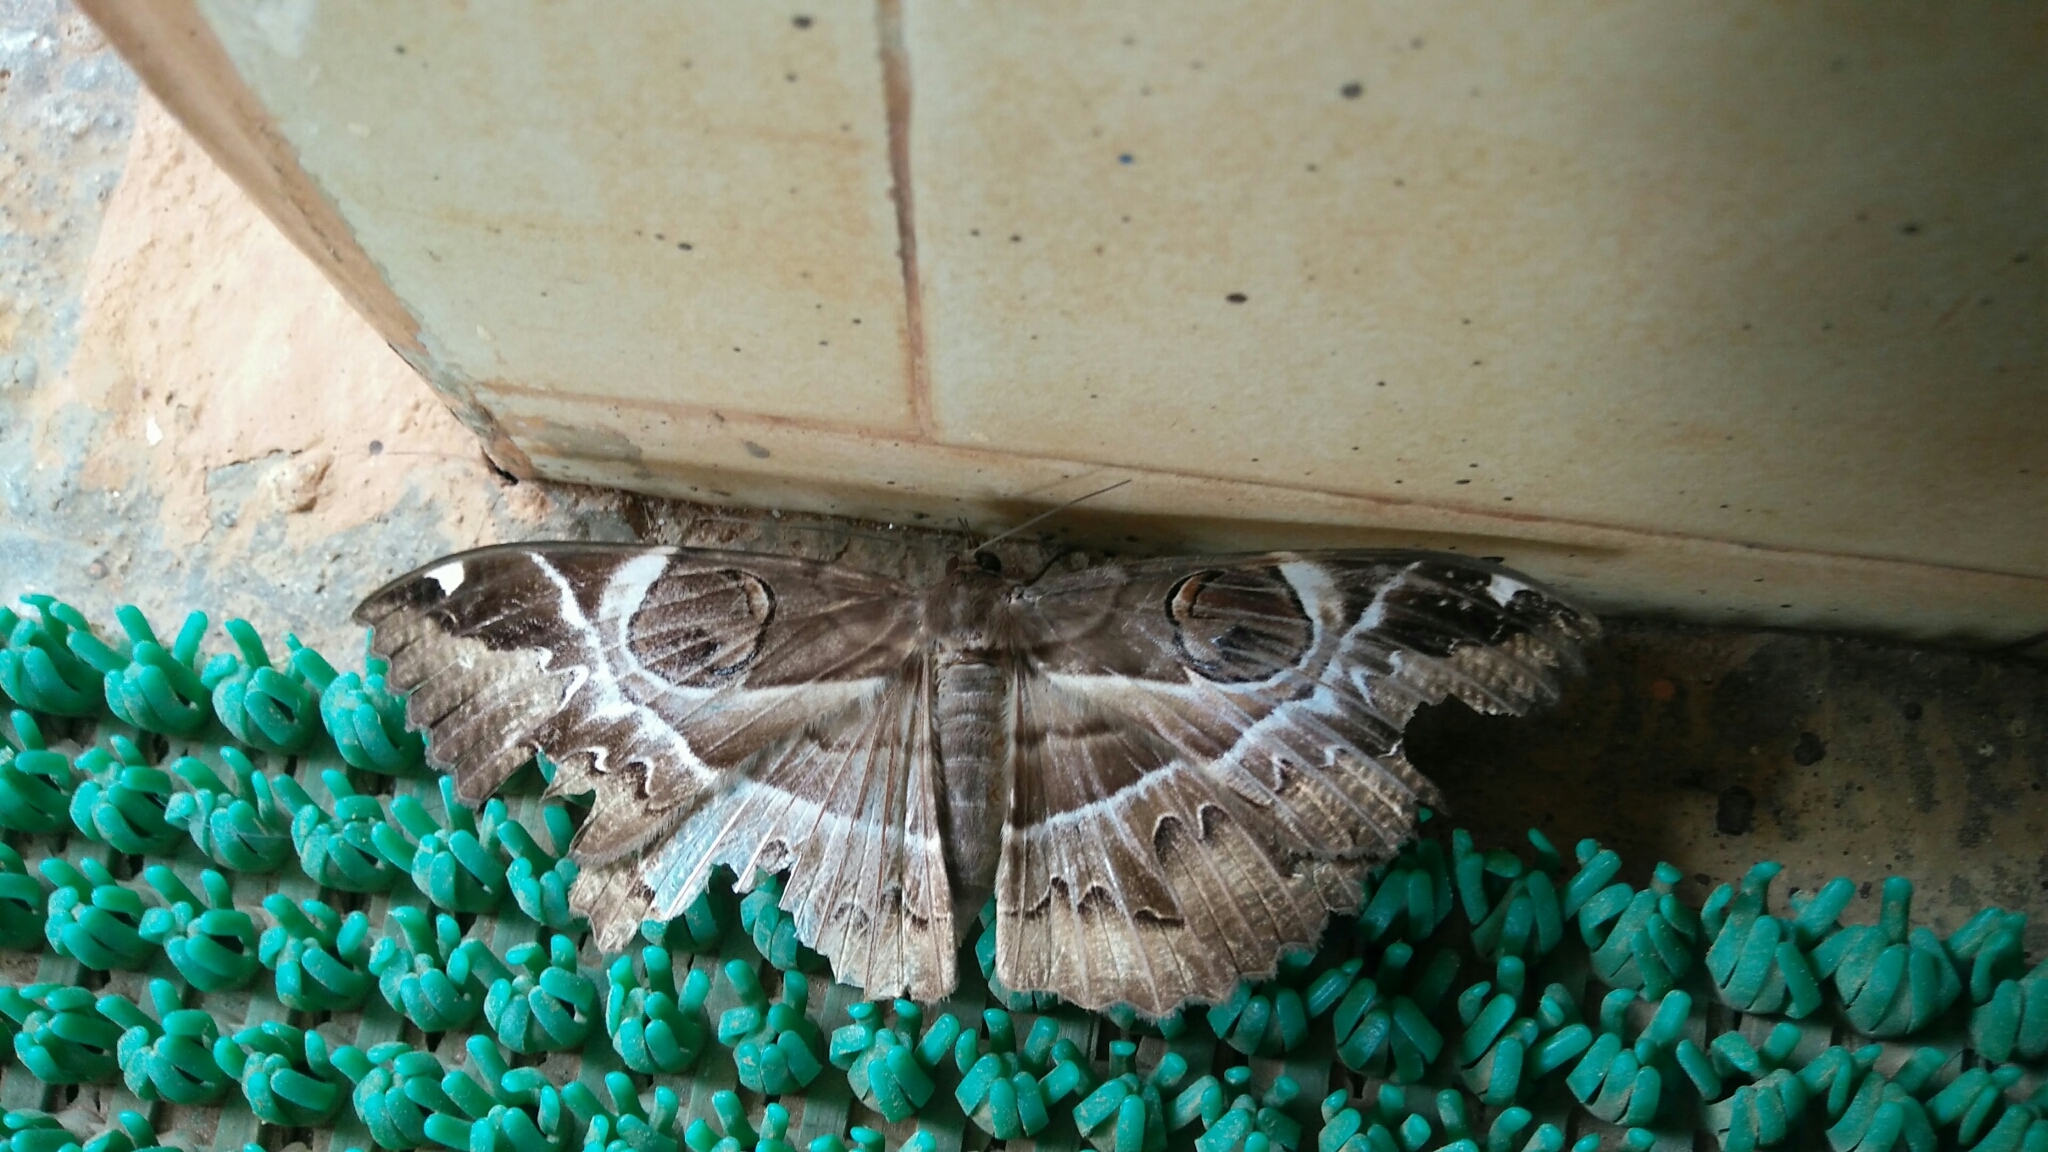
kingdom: Animalia
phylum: Arthropoda
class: Insecta
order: Lepidoptera
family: Erebidae
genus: Erebus
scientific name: Erebus ephesperis
